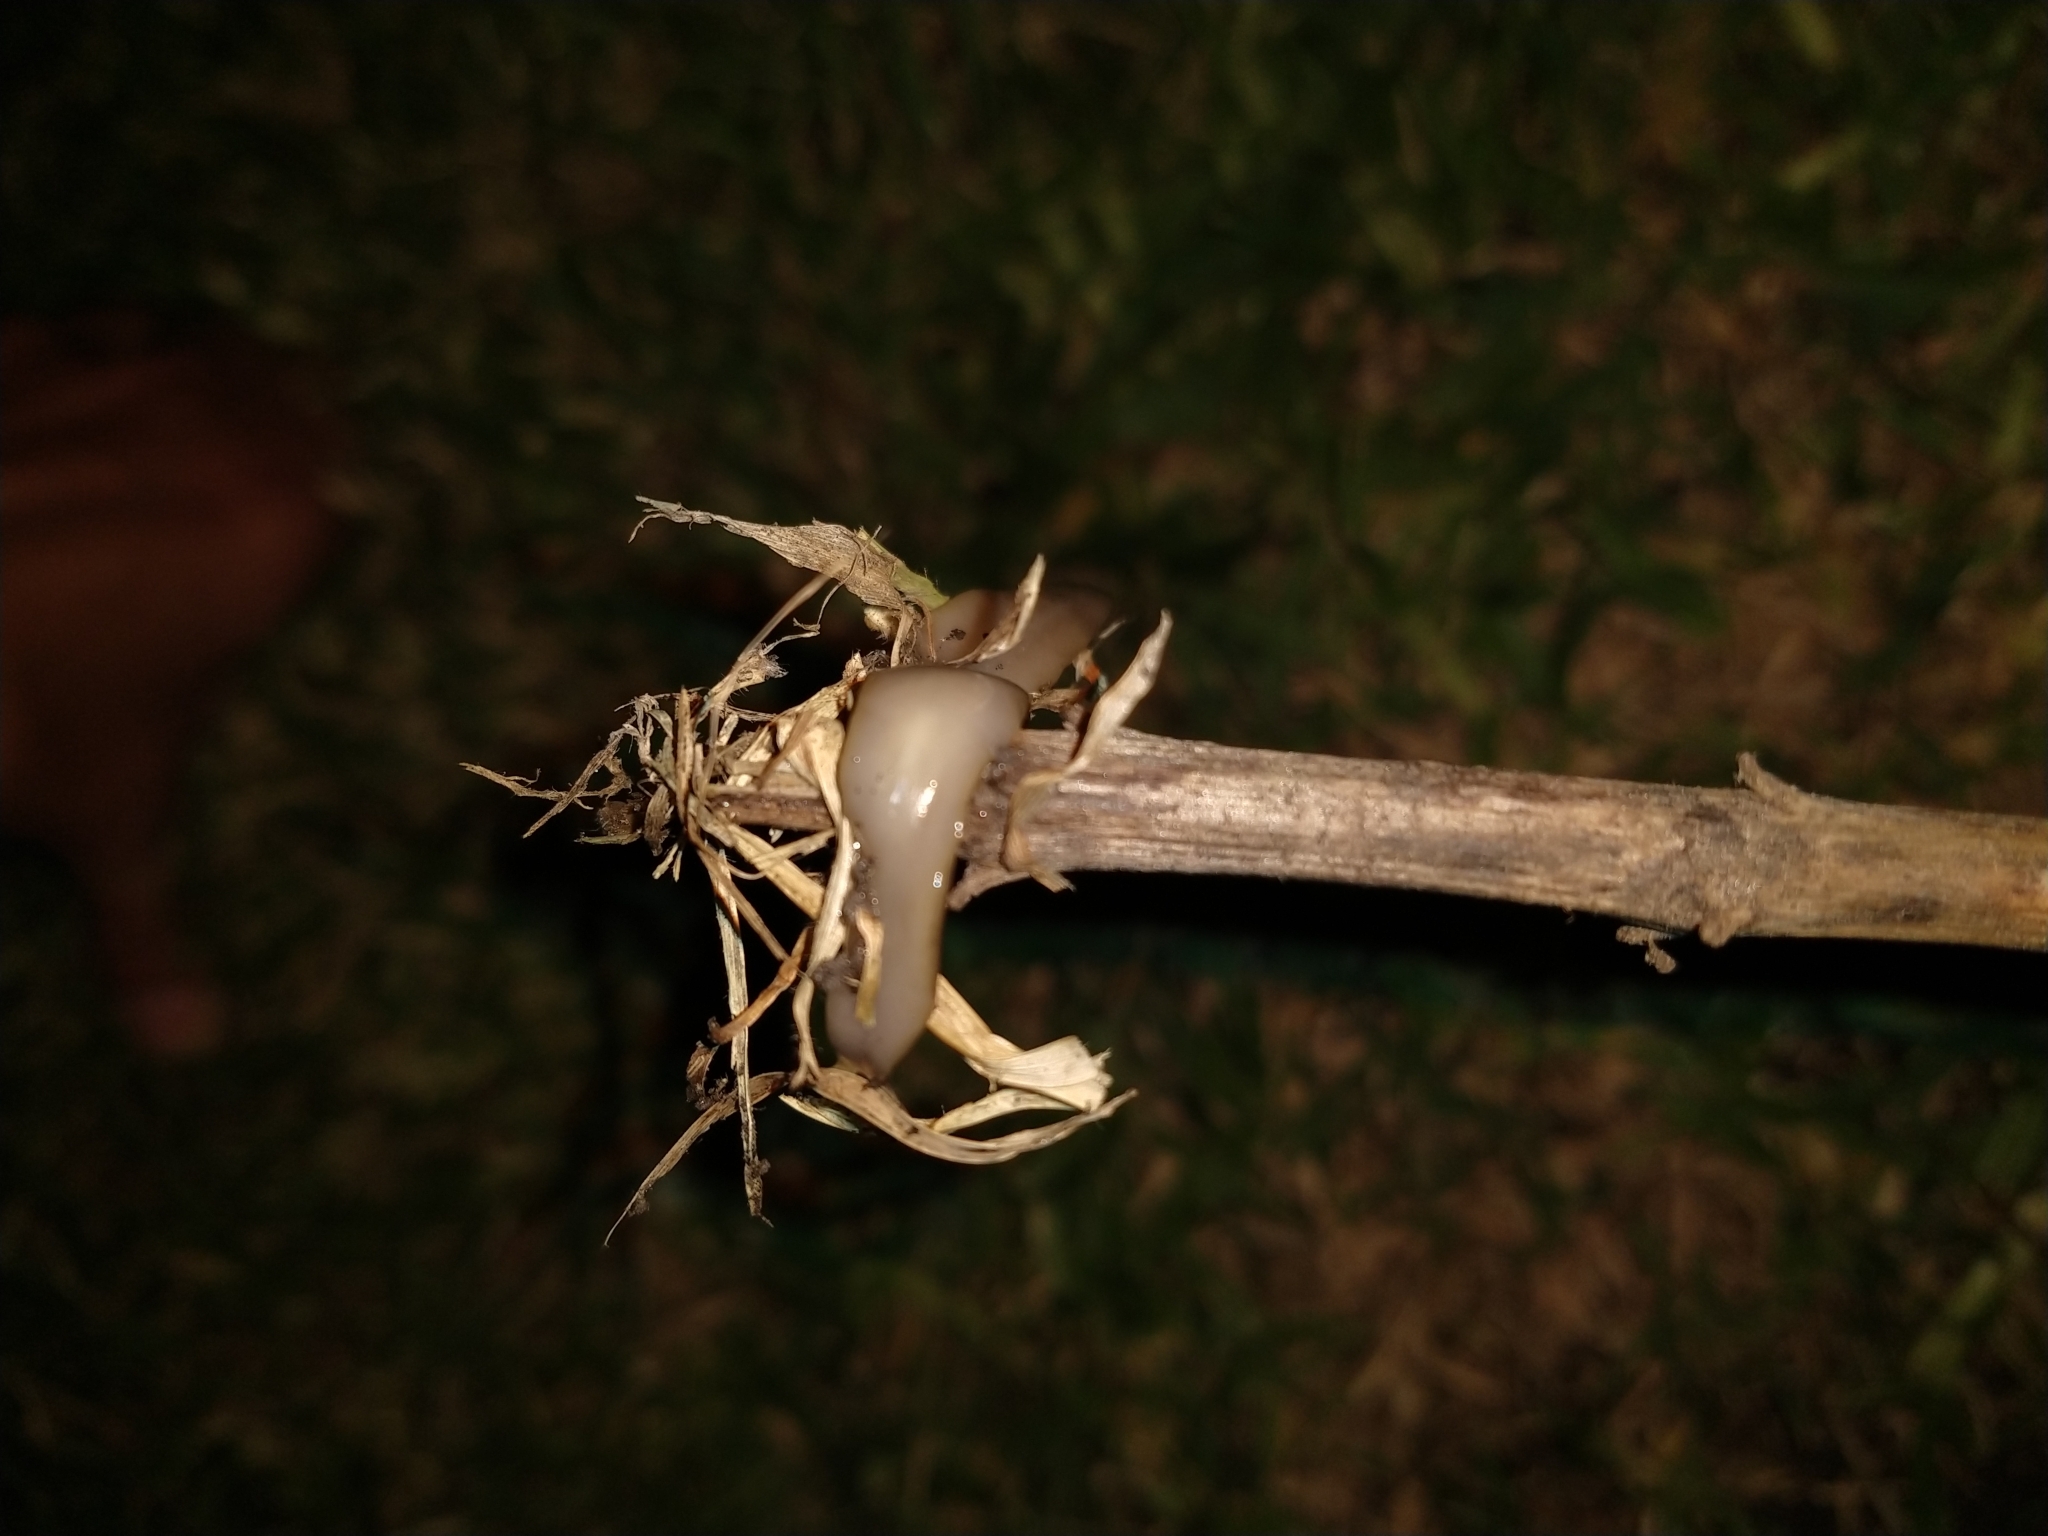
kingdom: Animalia
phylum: Platyhelminthes
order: Tricladida
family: Geoplanidae
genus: Obama
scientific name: Obama nungara
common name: Obama flatworm
